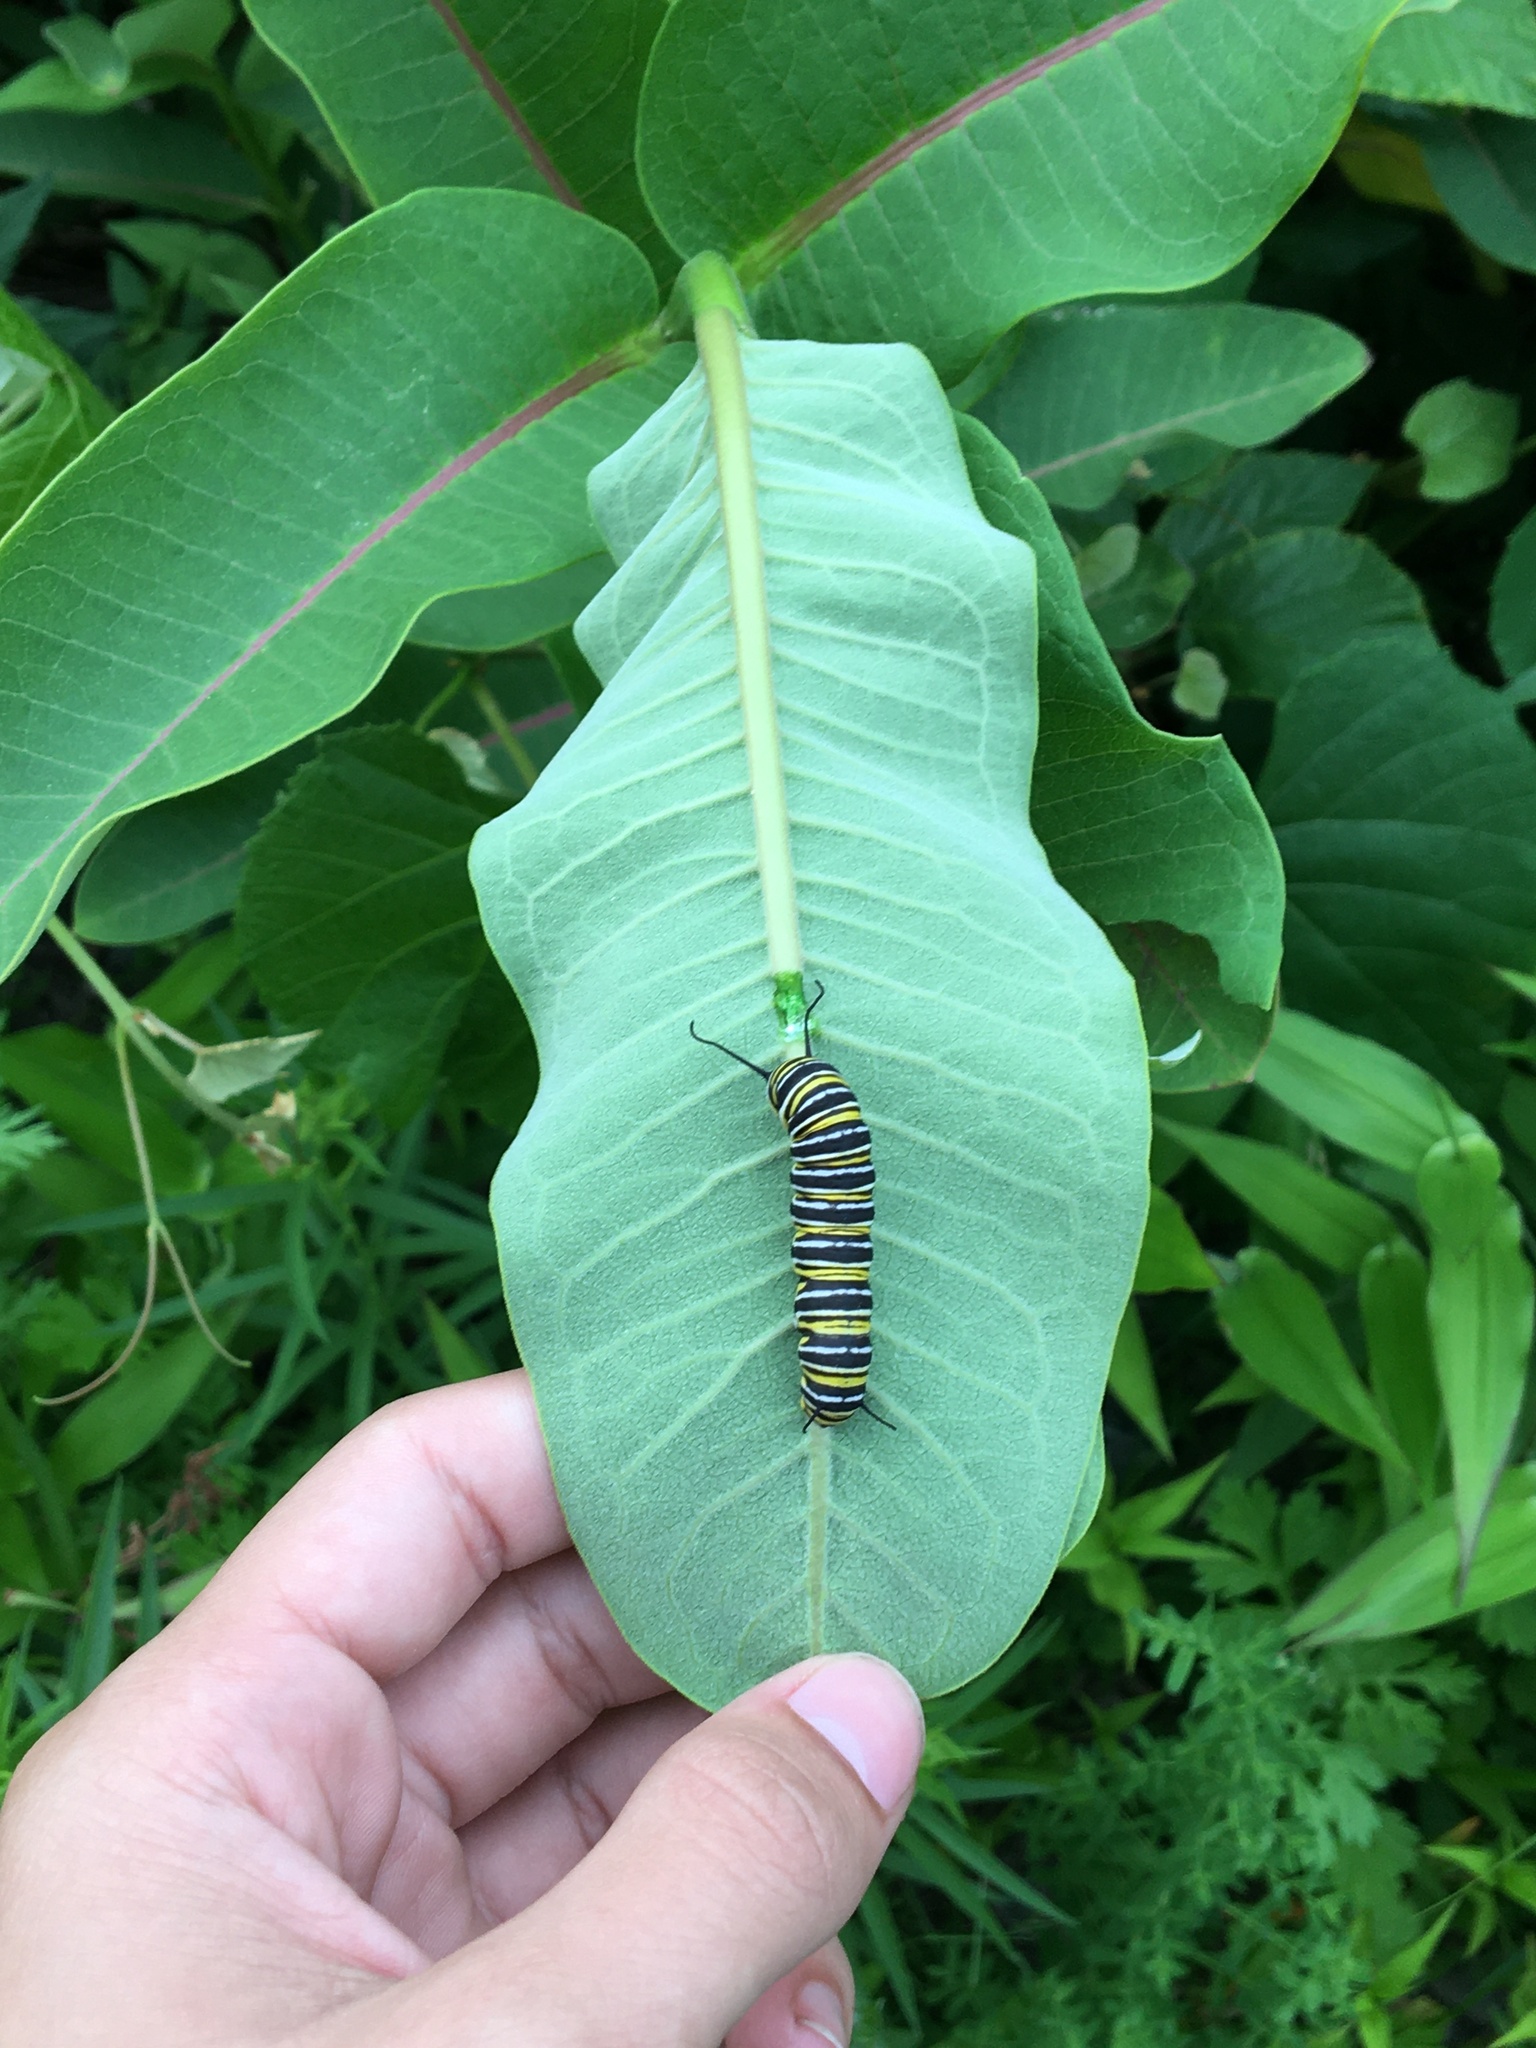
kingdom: Animalia
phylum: Arthropoda
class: Insecta
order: Lepidoptera
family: Nymphalidae
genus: Danaus
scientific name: Danaus plexippus
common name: Monarch
